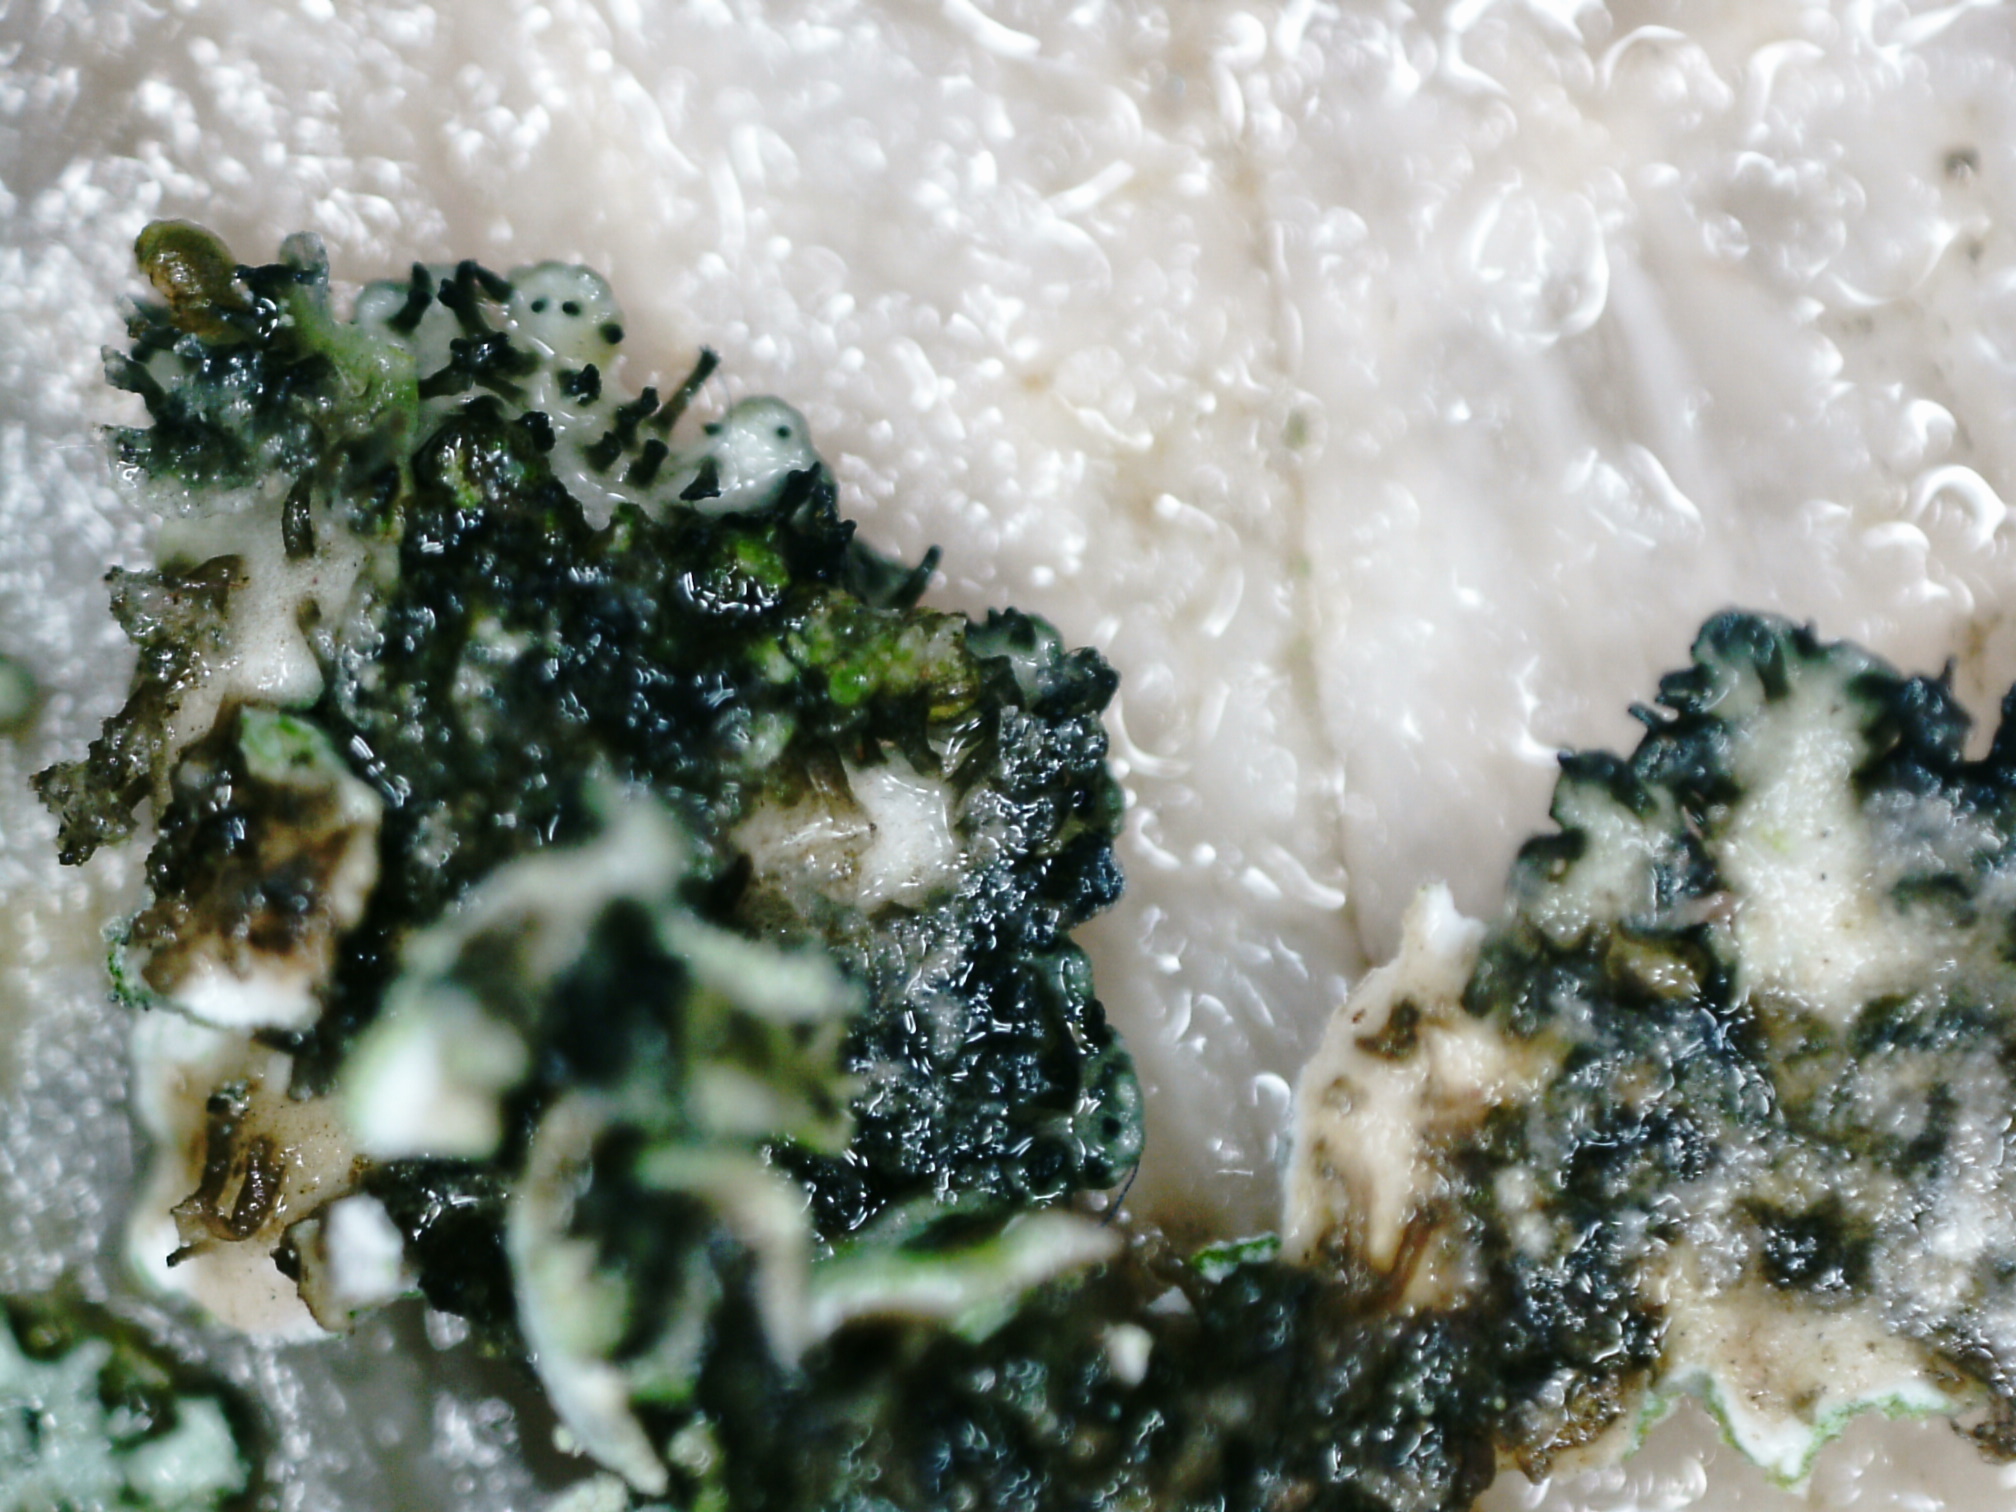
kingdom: Fungi
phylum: Ascomycota
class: Lecanoromycetes
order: Caliciales
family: Physciaceae
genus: Physcia
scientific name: Physcia caesia
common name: Blue-gray rosette lichen
